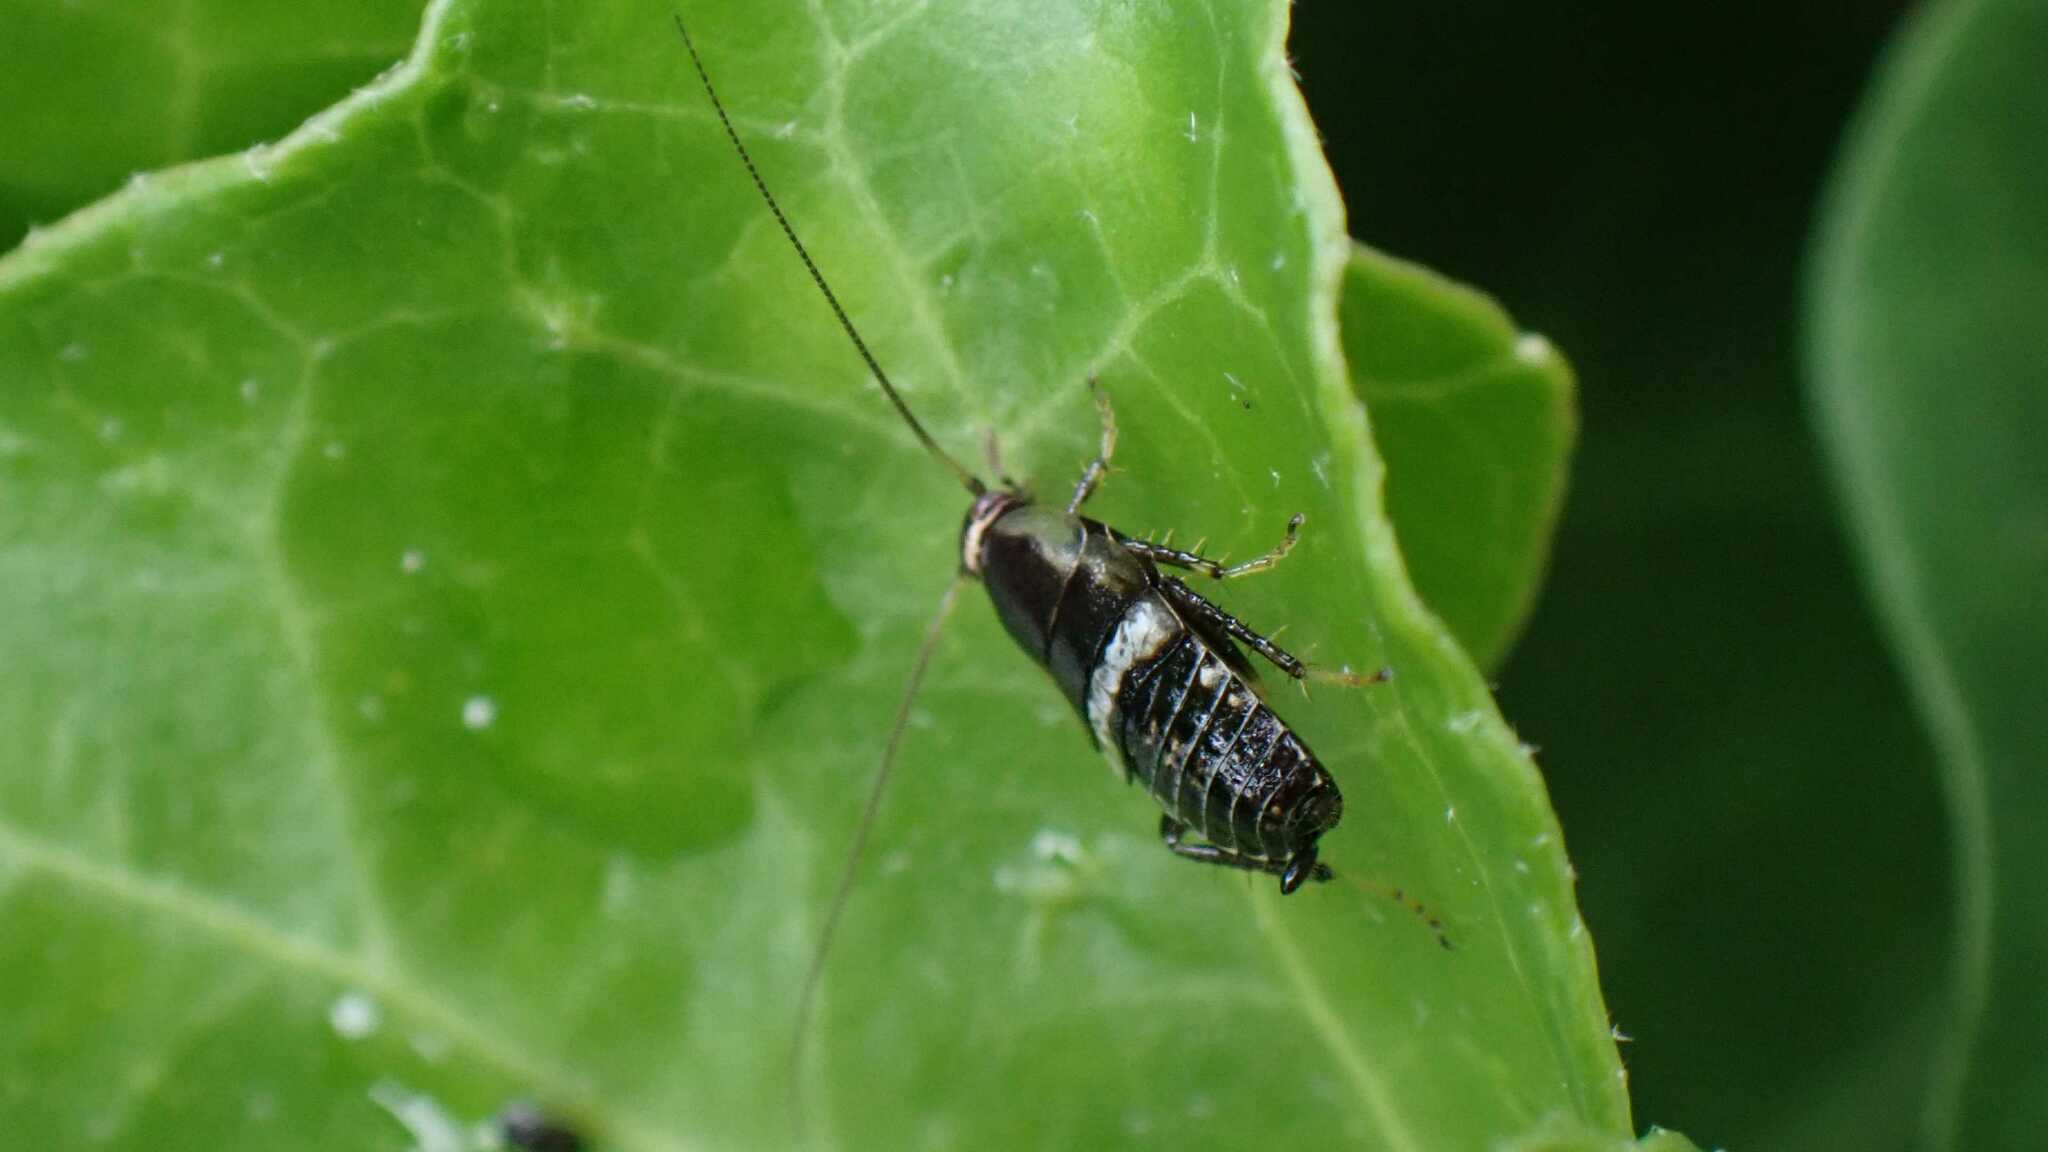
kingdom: Animalia
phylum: Arthropoda
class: Insecta
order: Blattodea
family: Ectobiidae
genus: Planuncus
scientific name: Planuncus tingitanus
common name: Variable cockroach
